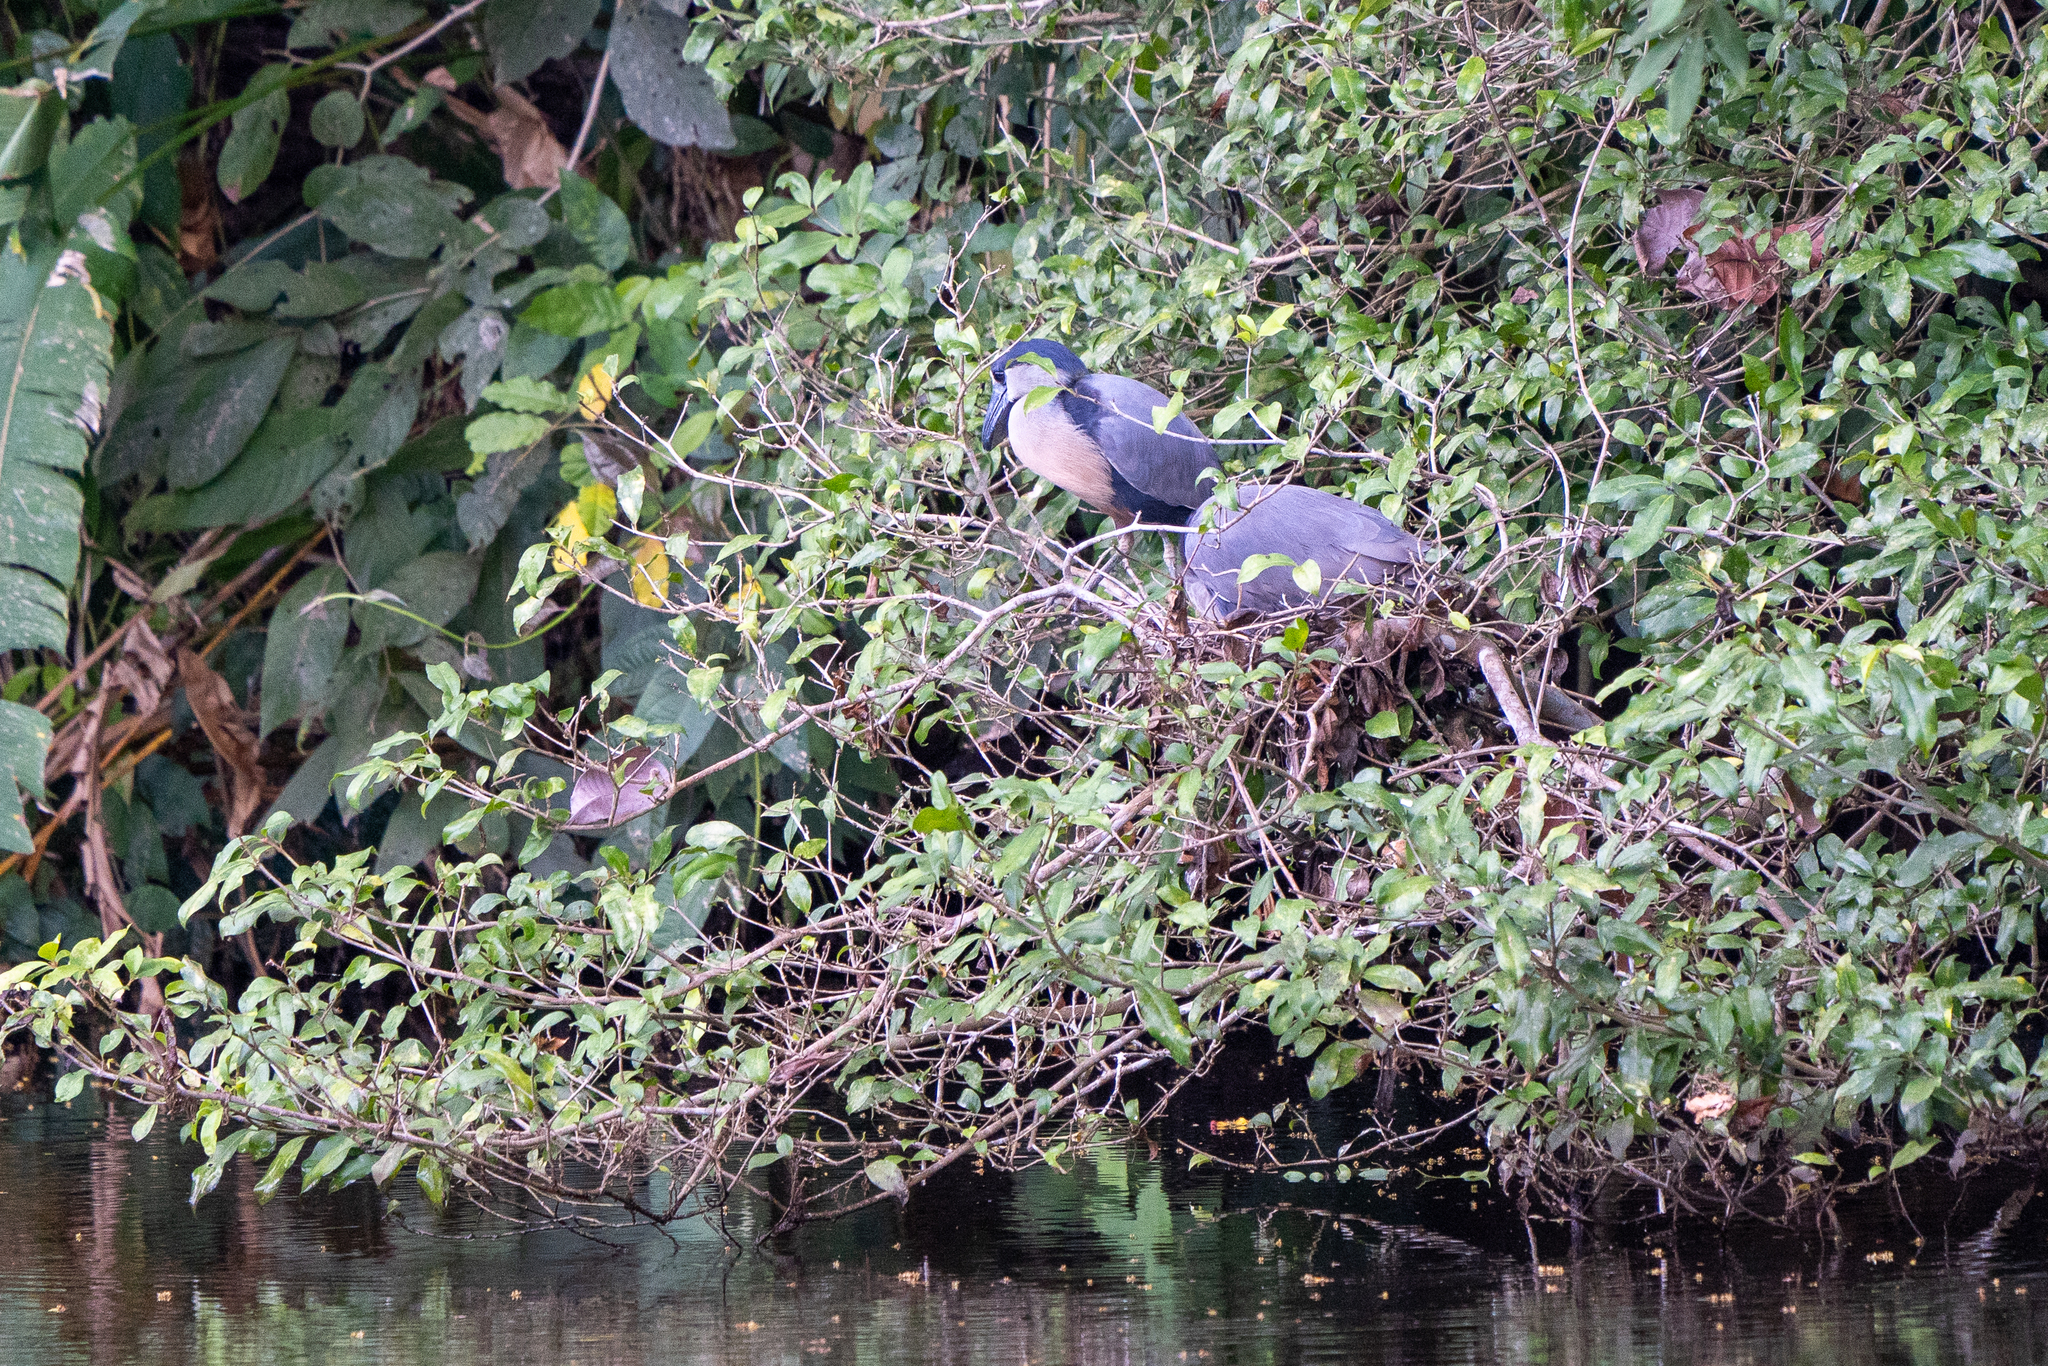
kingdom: Animalia
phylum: Chordata
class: Aves
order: Pelecaniformes
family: Ardeidae
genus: Cochlearius
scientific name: Cochlearius cochlearius
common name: Boat-billed heron
